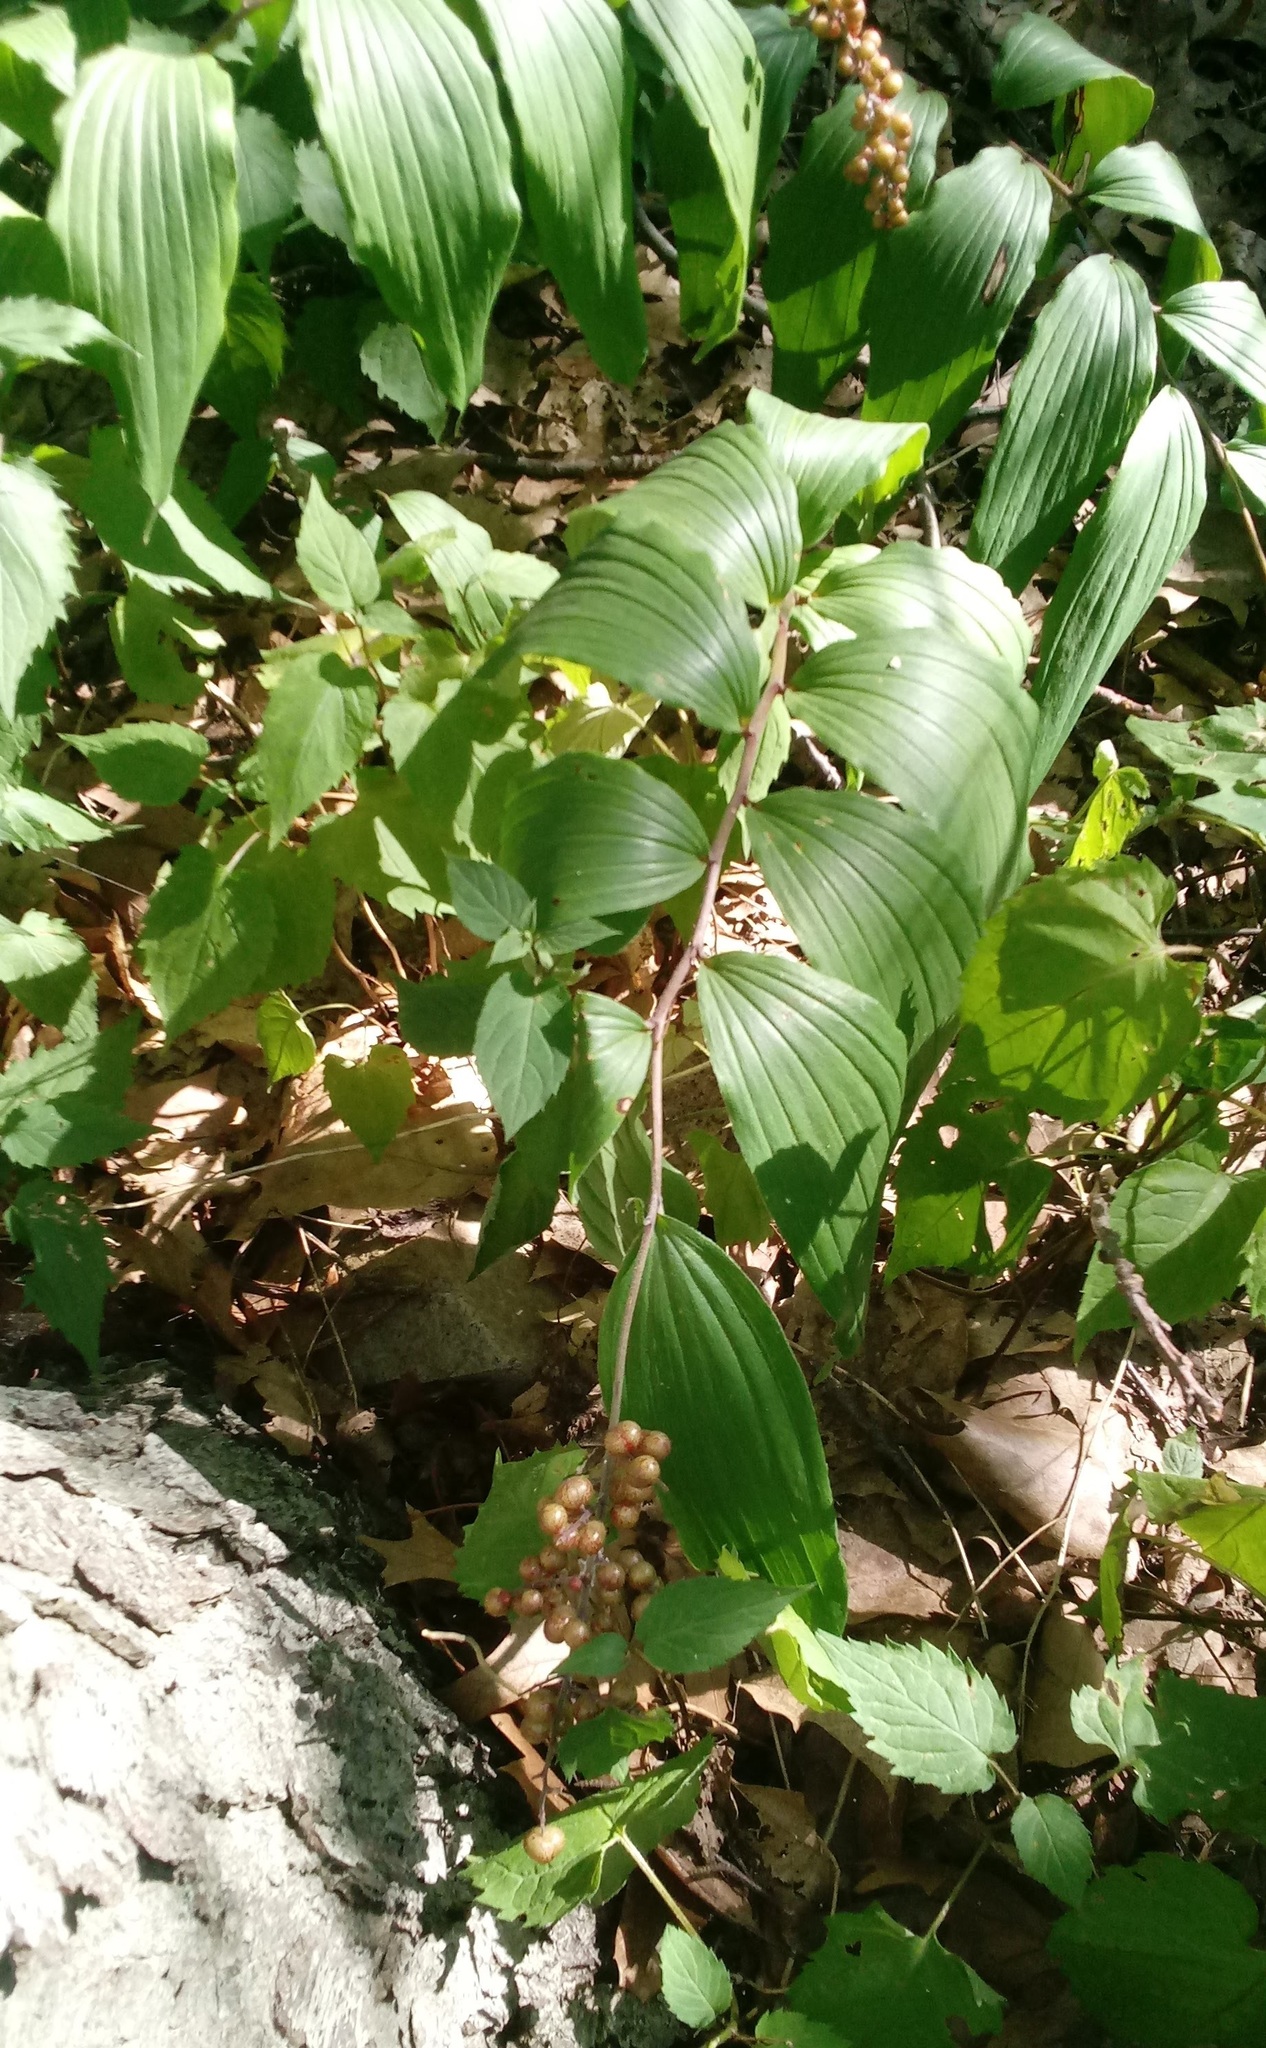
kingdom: Plantae
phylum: Tracheophyta
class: Liliopsida
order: Asparagales
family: Asparagaceae
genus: Maianthemum
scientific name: Maianthemum racemosum
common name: False spikenard
